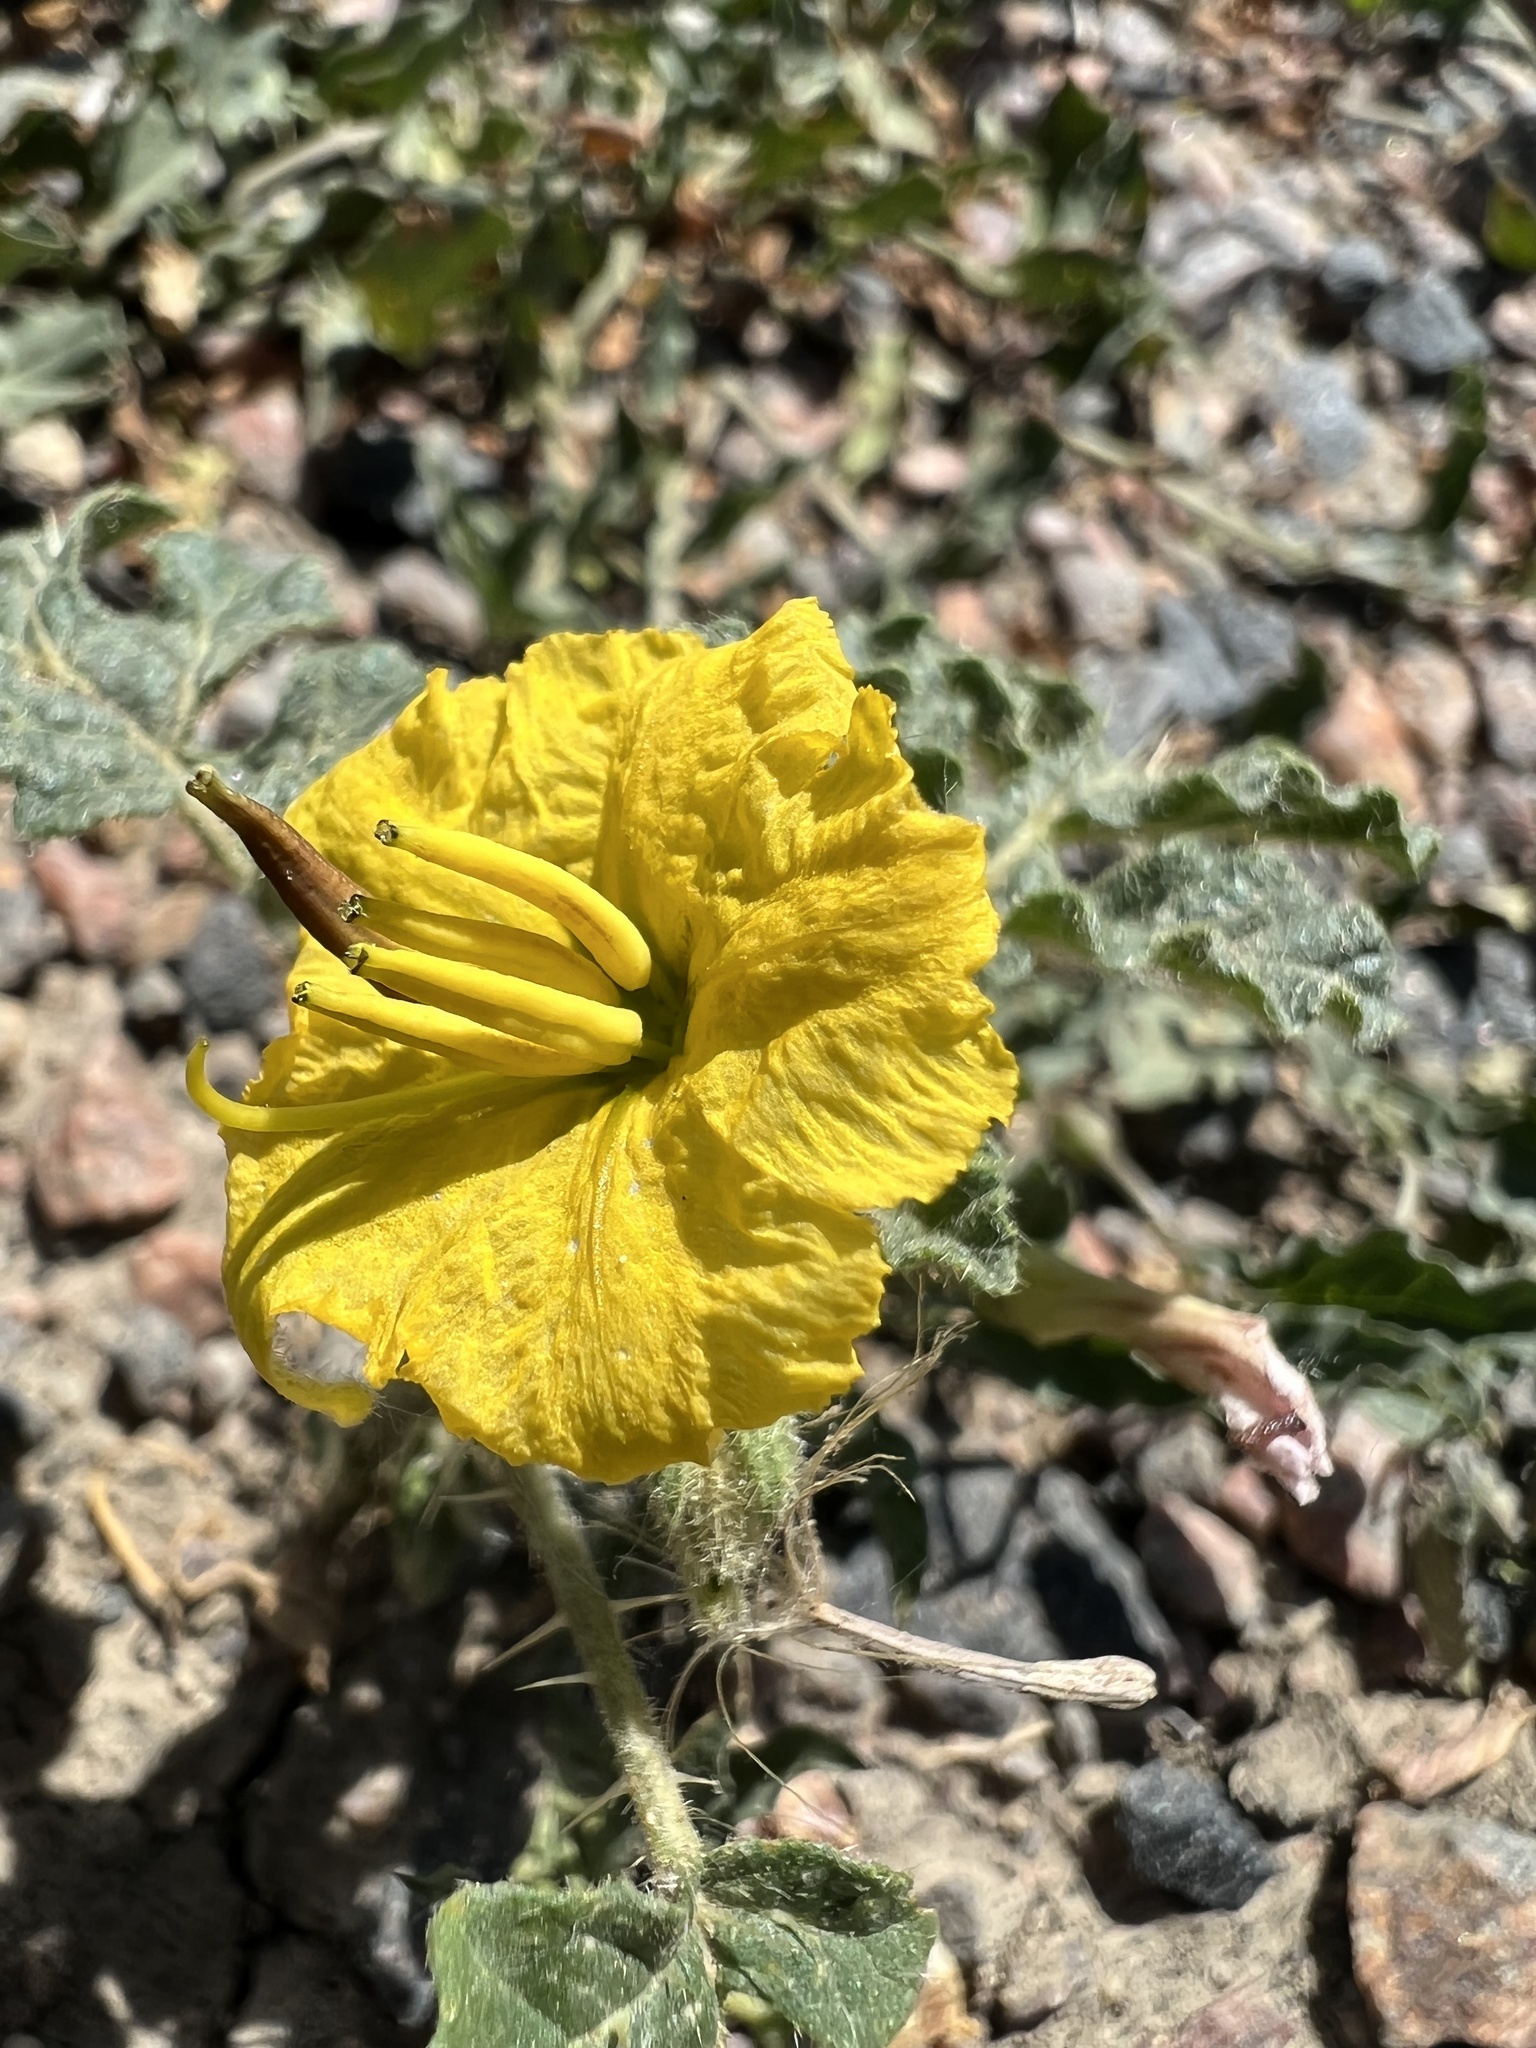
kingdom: Plantae
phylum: Tracheophyta
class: Magnoliopsida
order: Solanales
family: Solanaceae
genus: Solanum
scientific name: Solanum angustifolium
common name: Buffalobur nightshade
